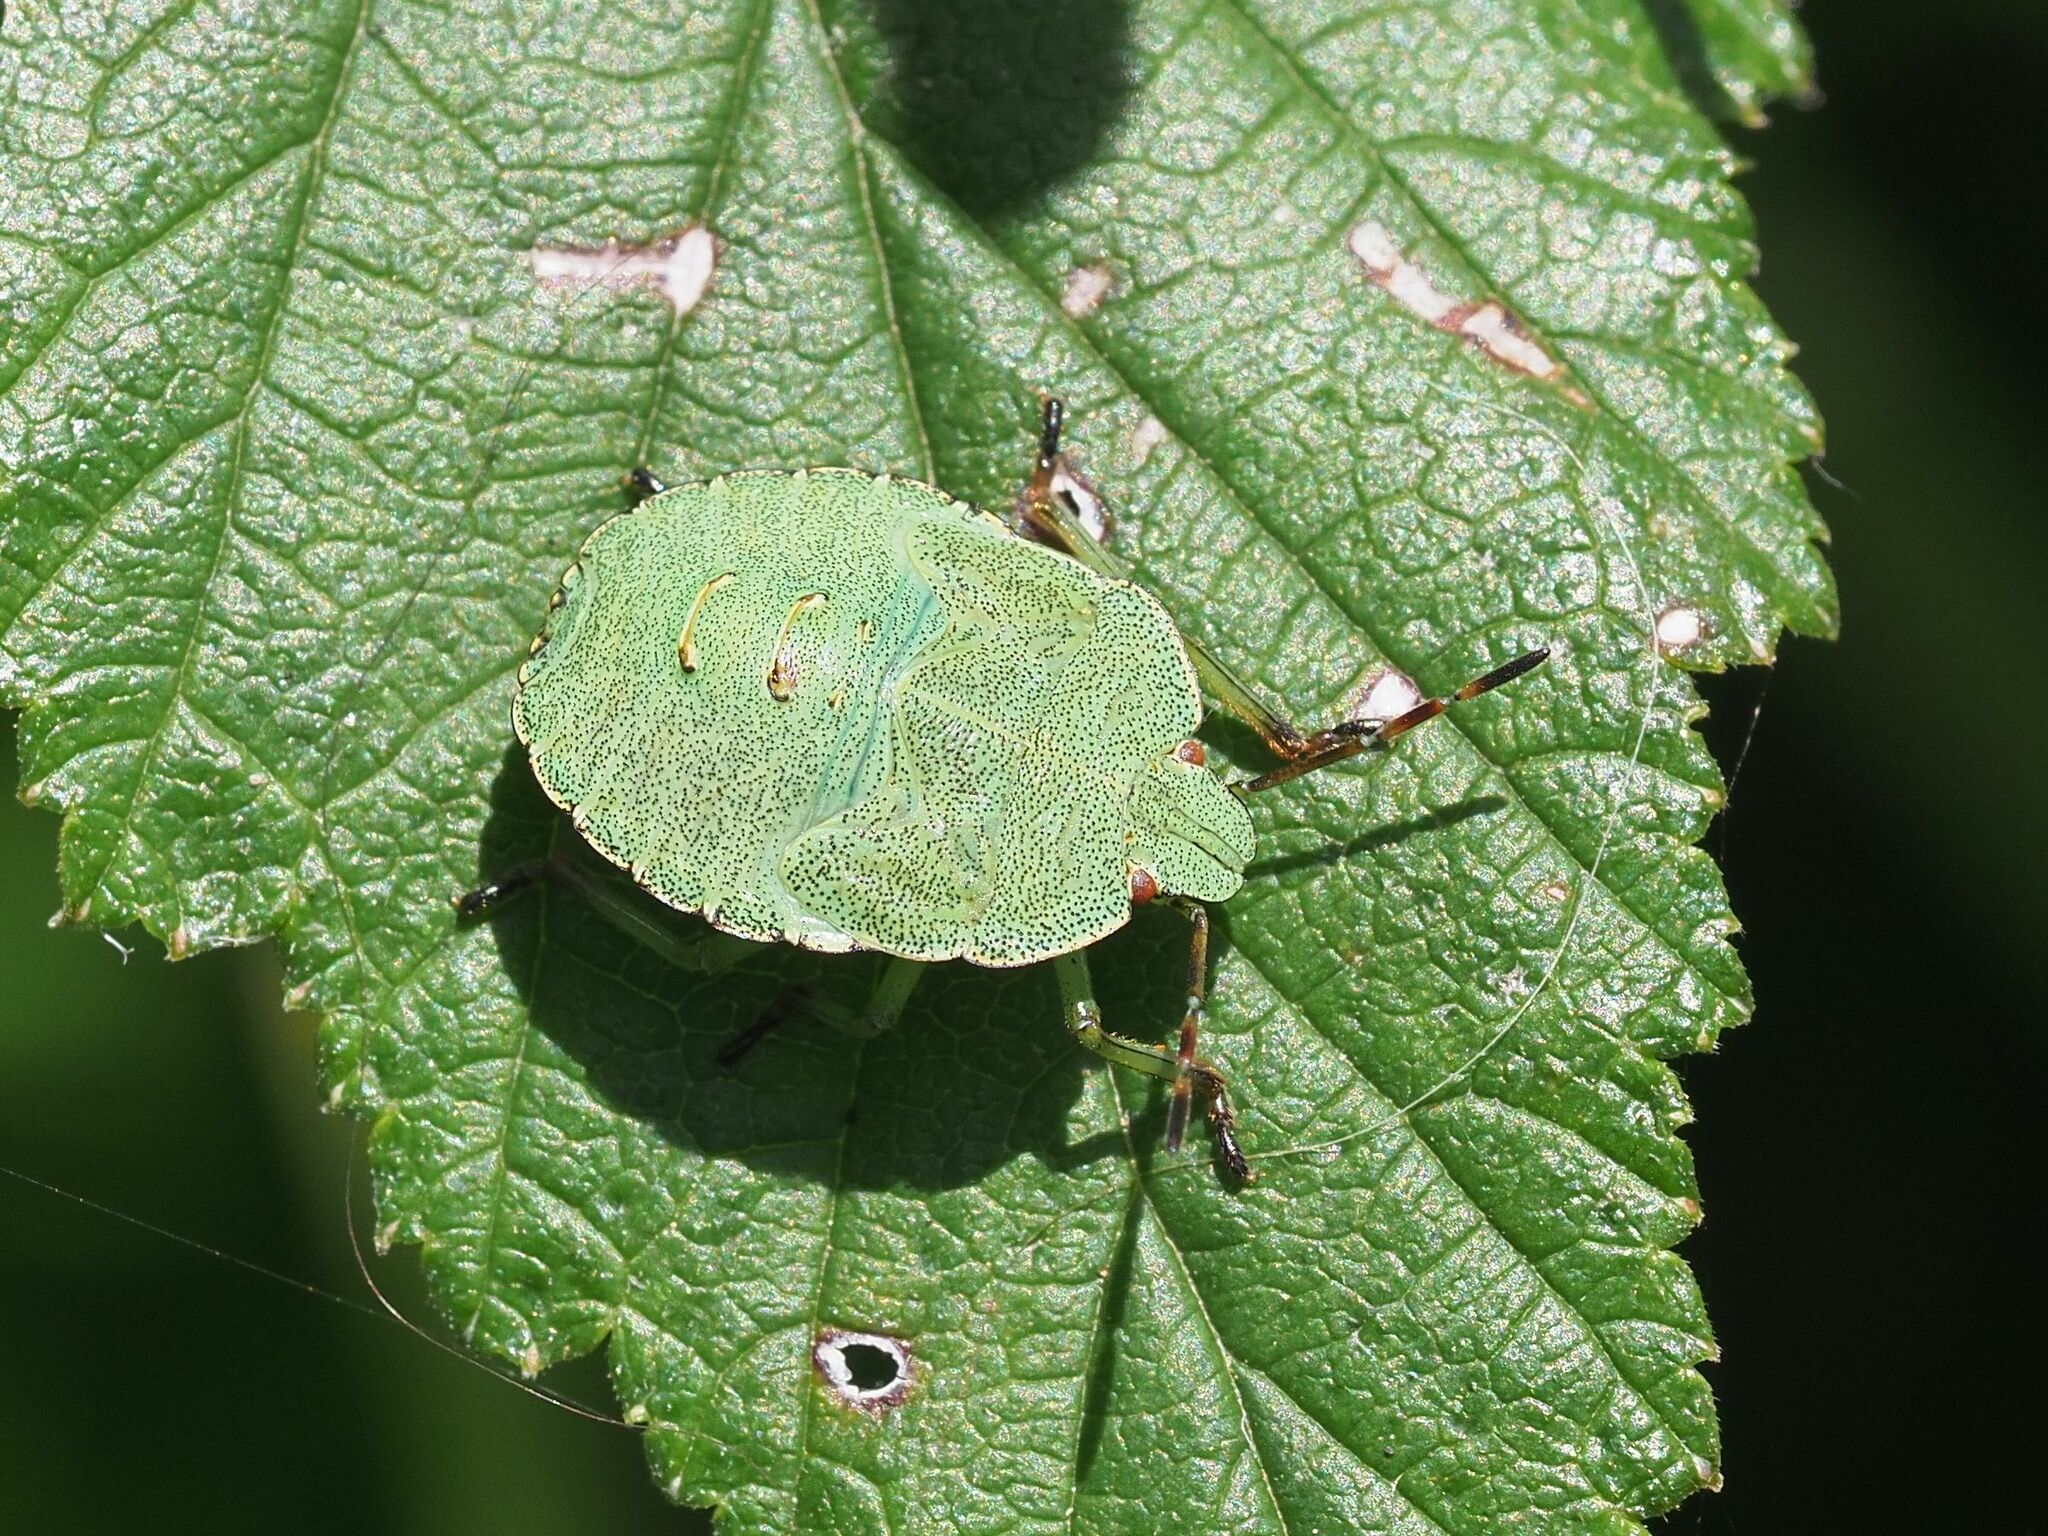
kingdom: Animalia
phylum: Arthropoda
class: Insecta
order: Hemiptera
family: Pentatomidae
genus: Palomena
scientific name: Palomena prasina
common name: Green shieldbug
